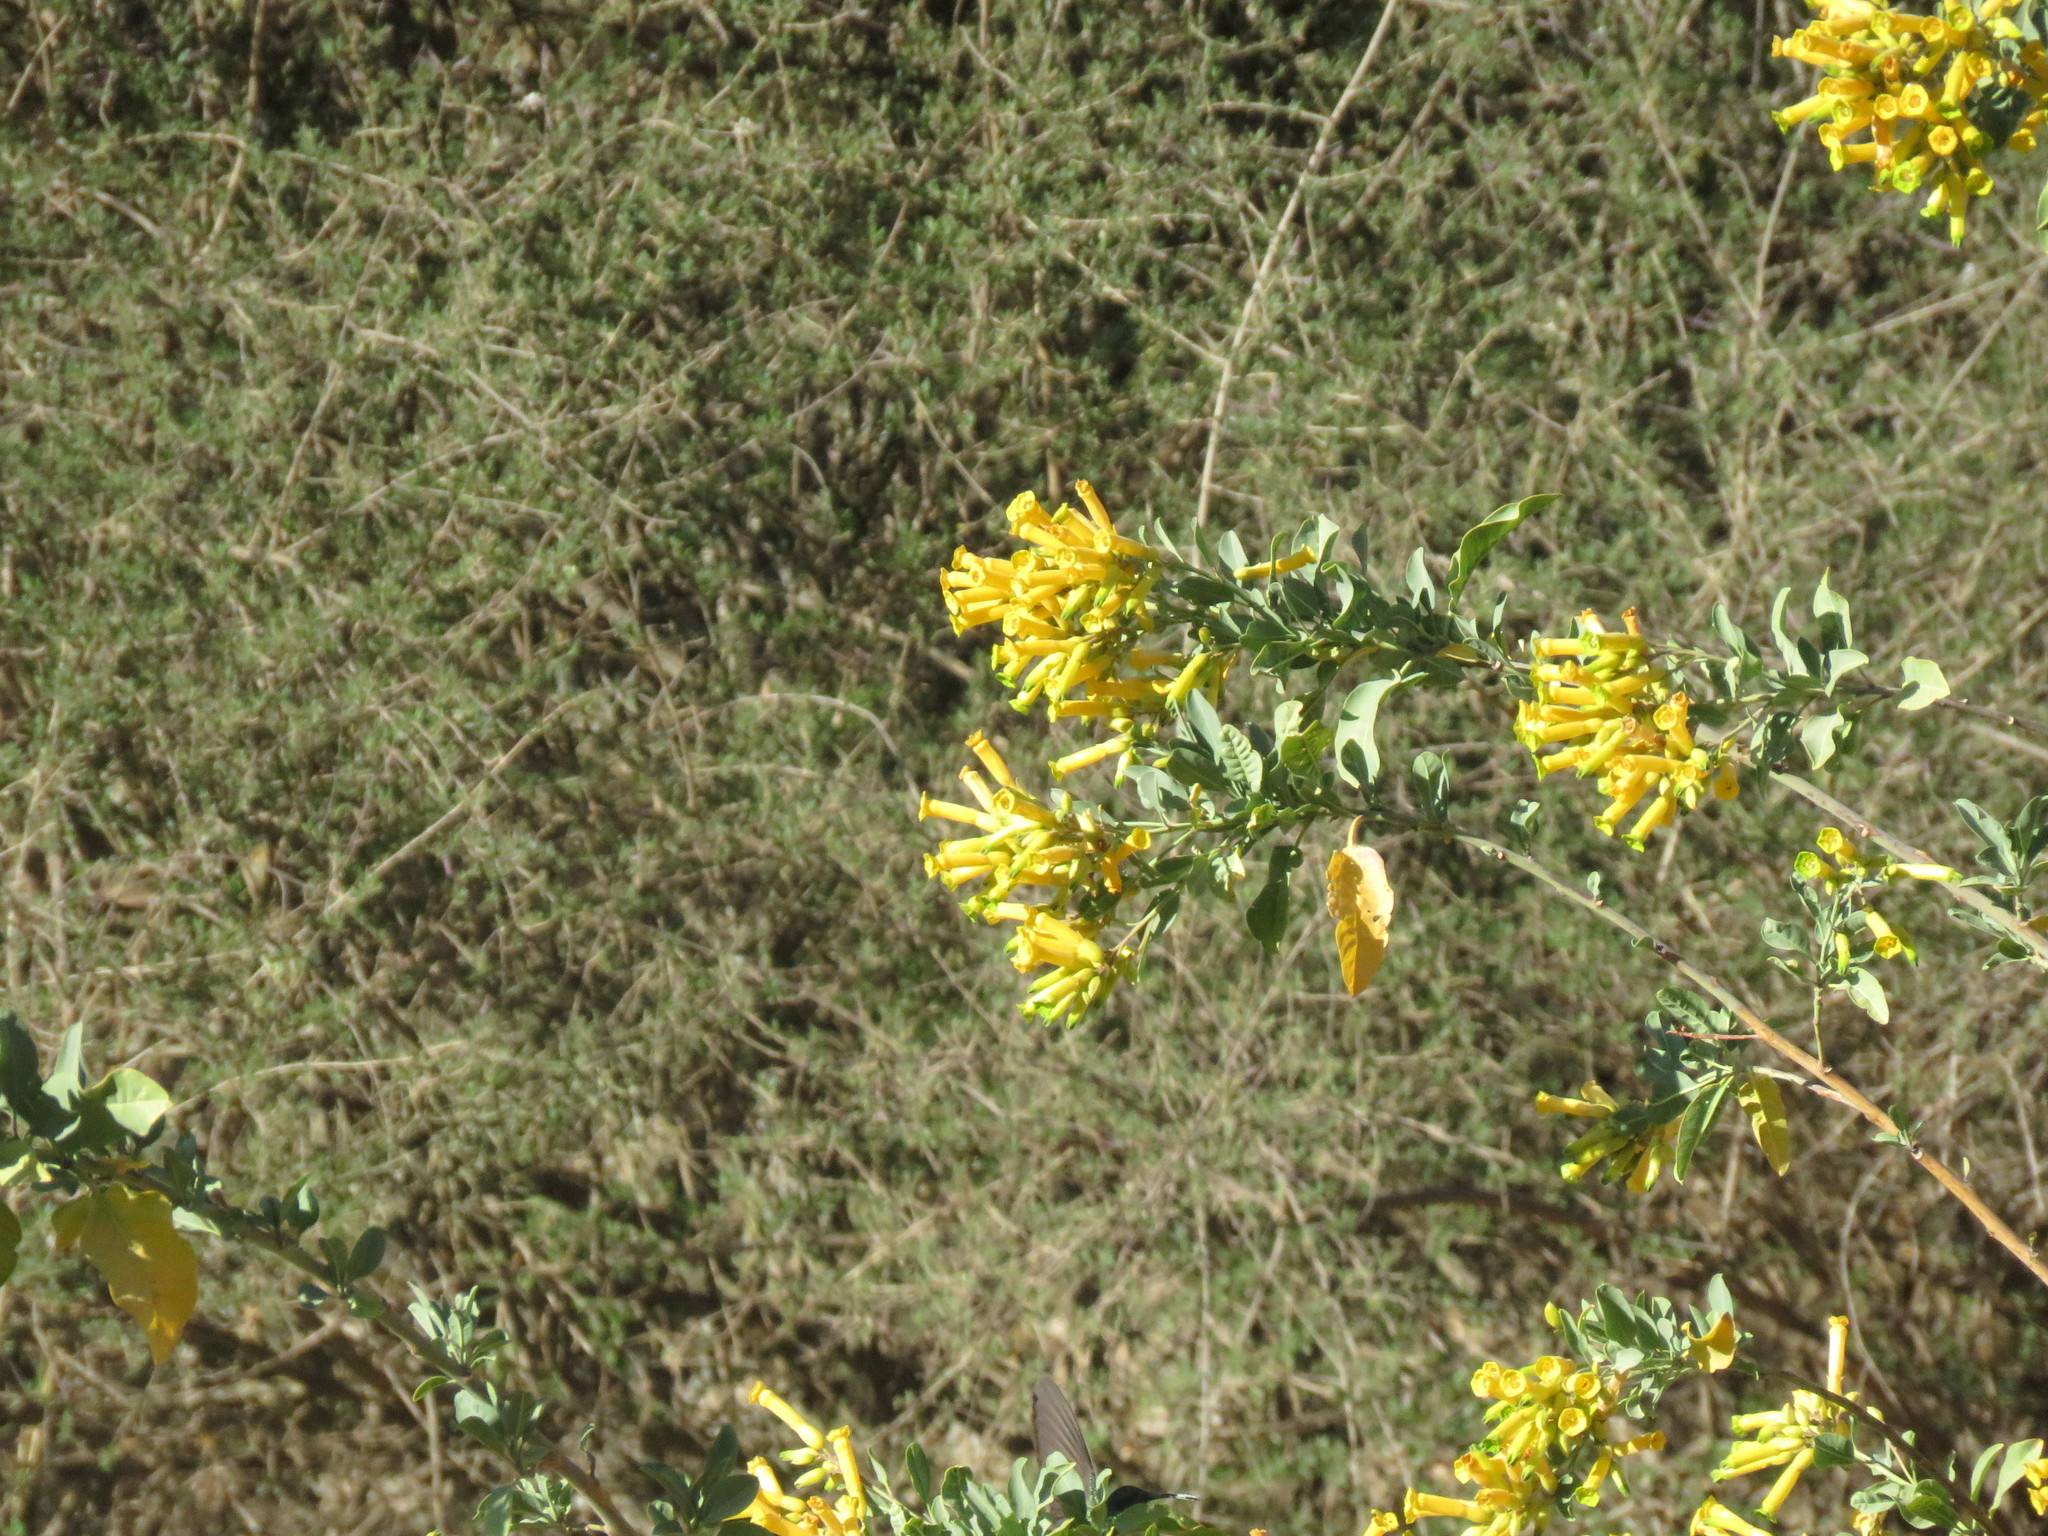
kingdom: Plantae
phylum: Tracheophyta
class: Magnoliopsida
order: Solanales
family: Solanaceae
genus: Nicotiana
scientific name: Nicotiana glauca
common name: Tree tobacco
